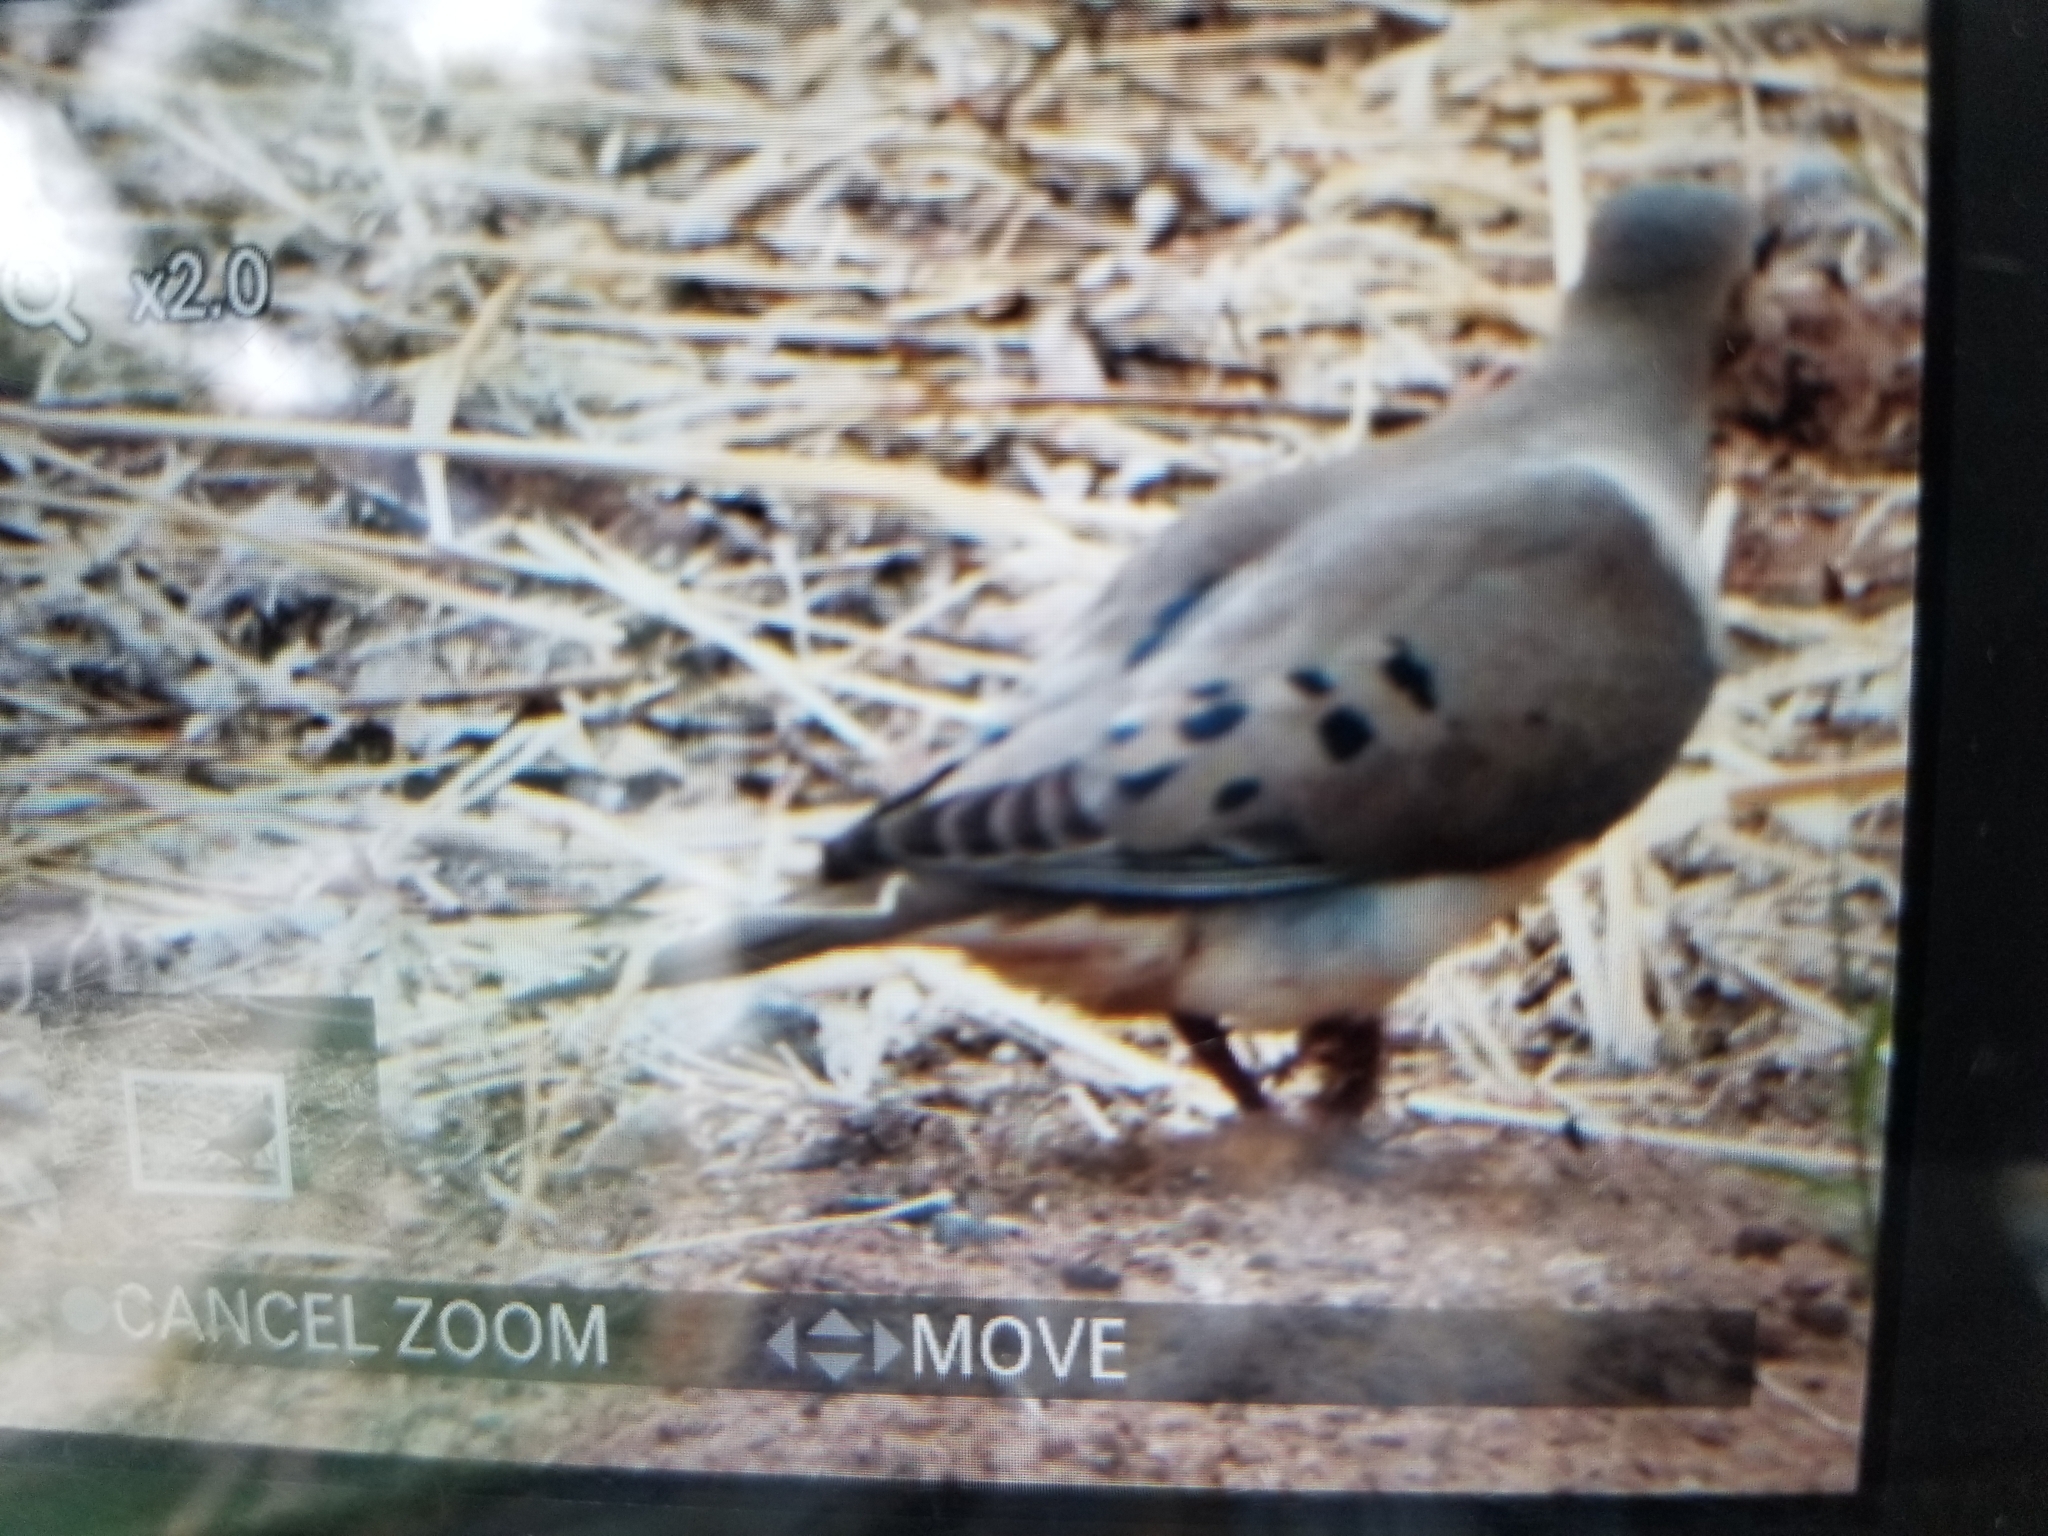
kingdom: Animalia
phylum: Chordata
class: Aves
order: Columbiformes
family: Columbidae
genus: Zenaida
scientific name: Zenaida macroura
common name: Mourning dove
